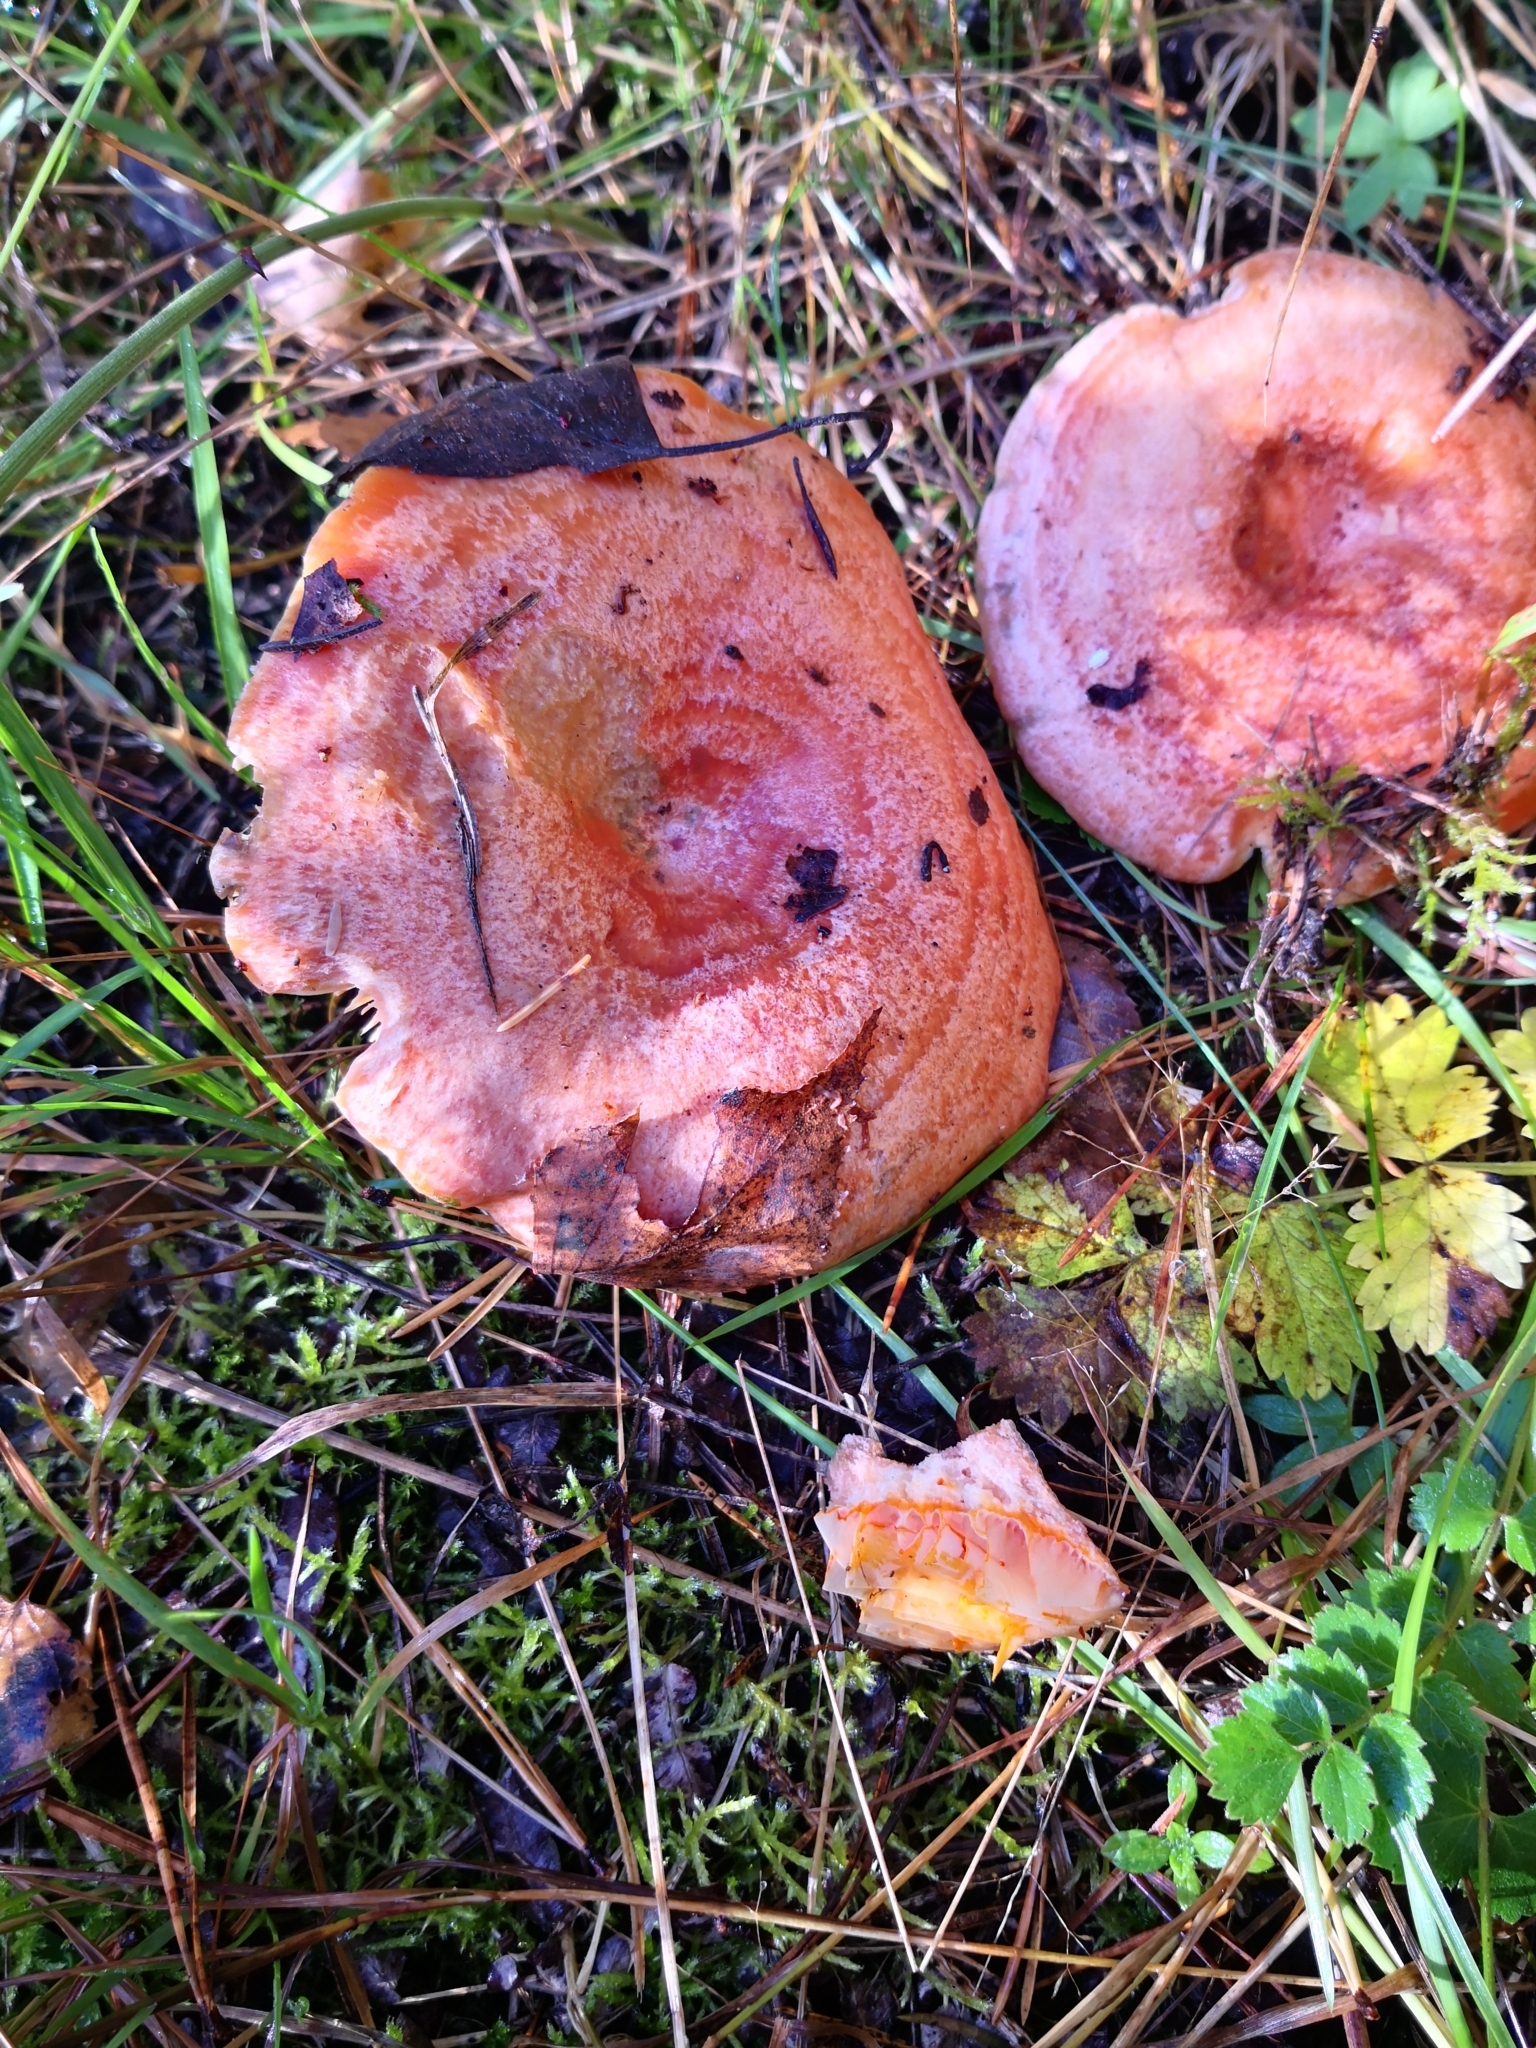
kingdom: Fungi
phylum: Basidiomycota
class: Agaricomycetes
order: Russulales
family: Russulaceae
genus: Lactarius
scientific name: Lactarius deliciosus
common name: Saffron milk-cap
